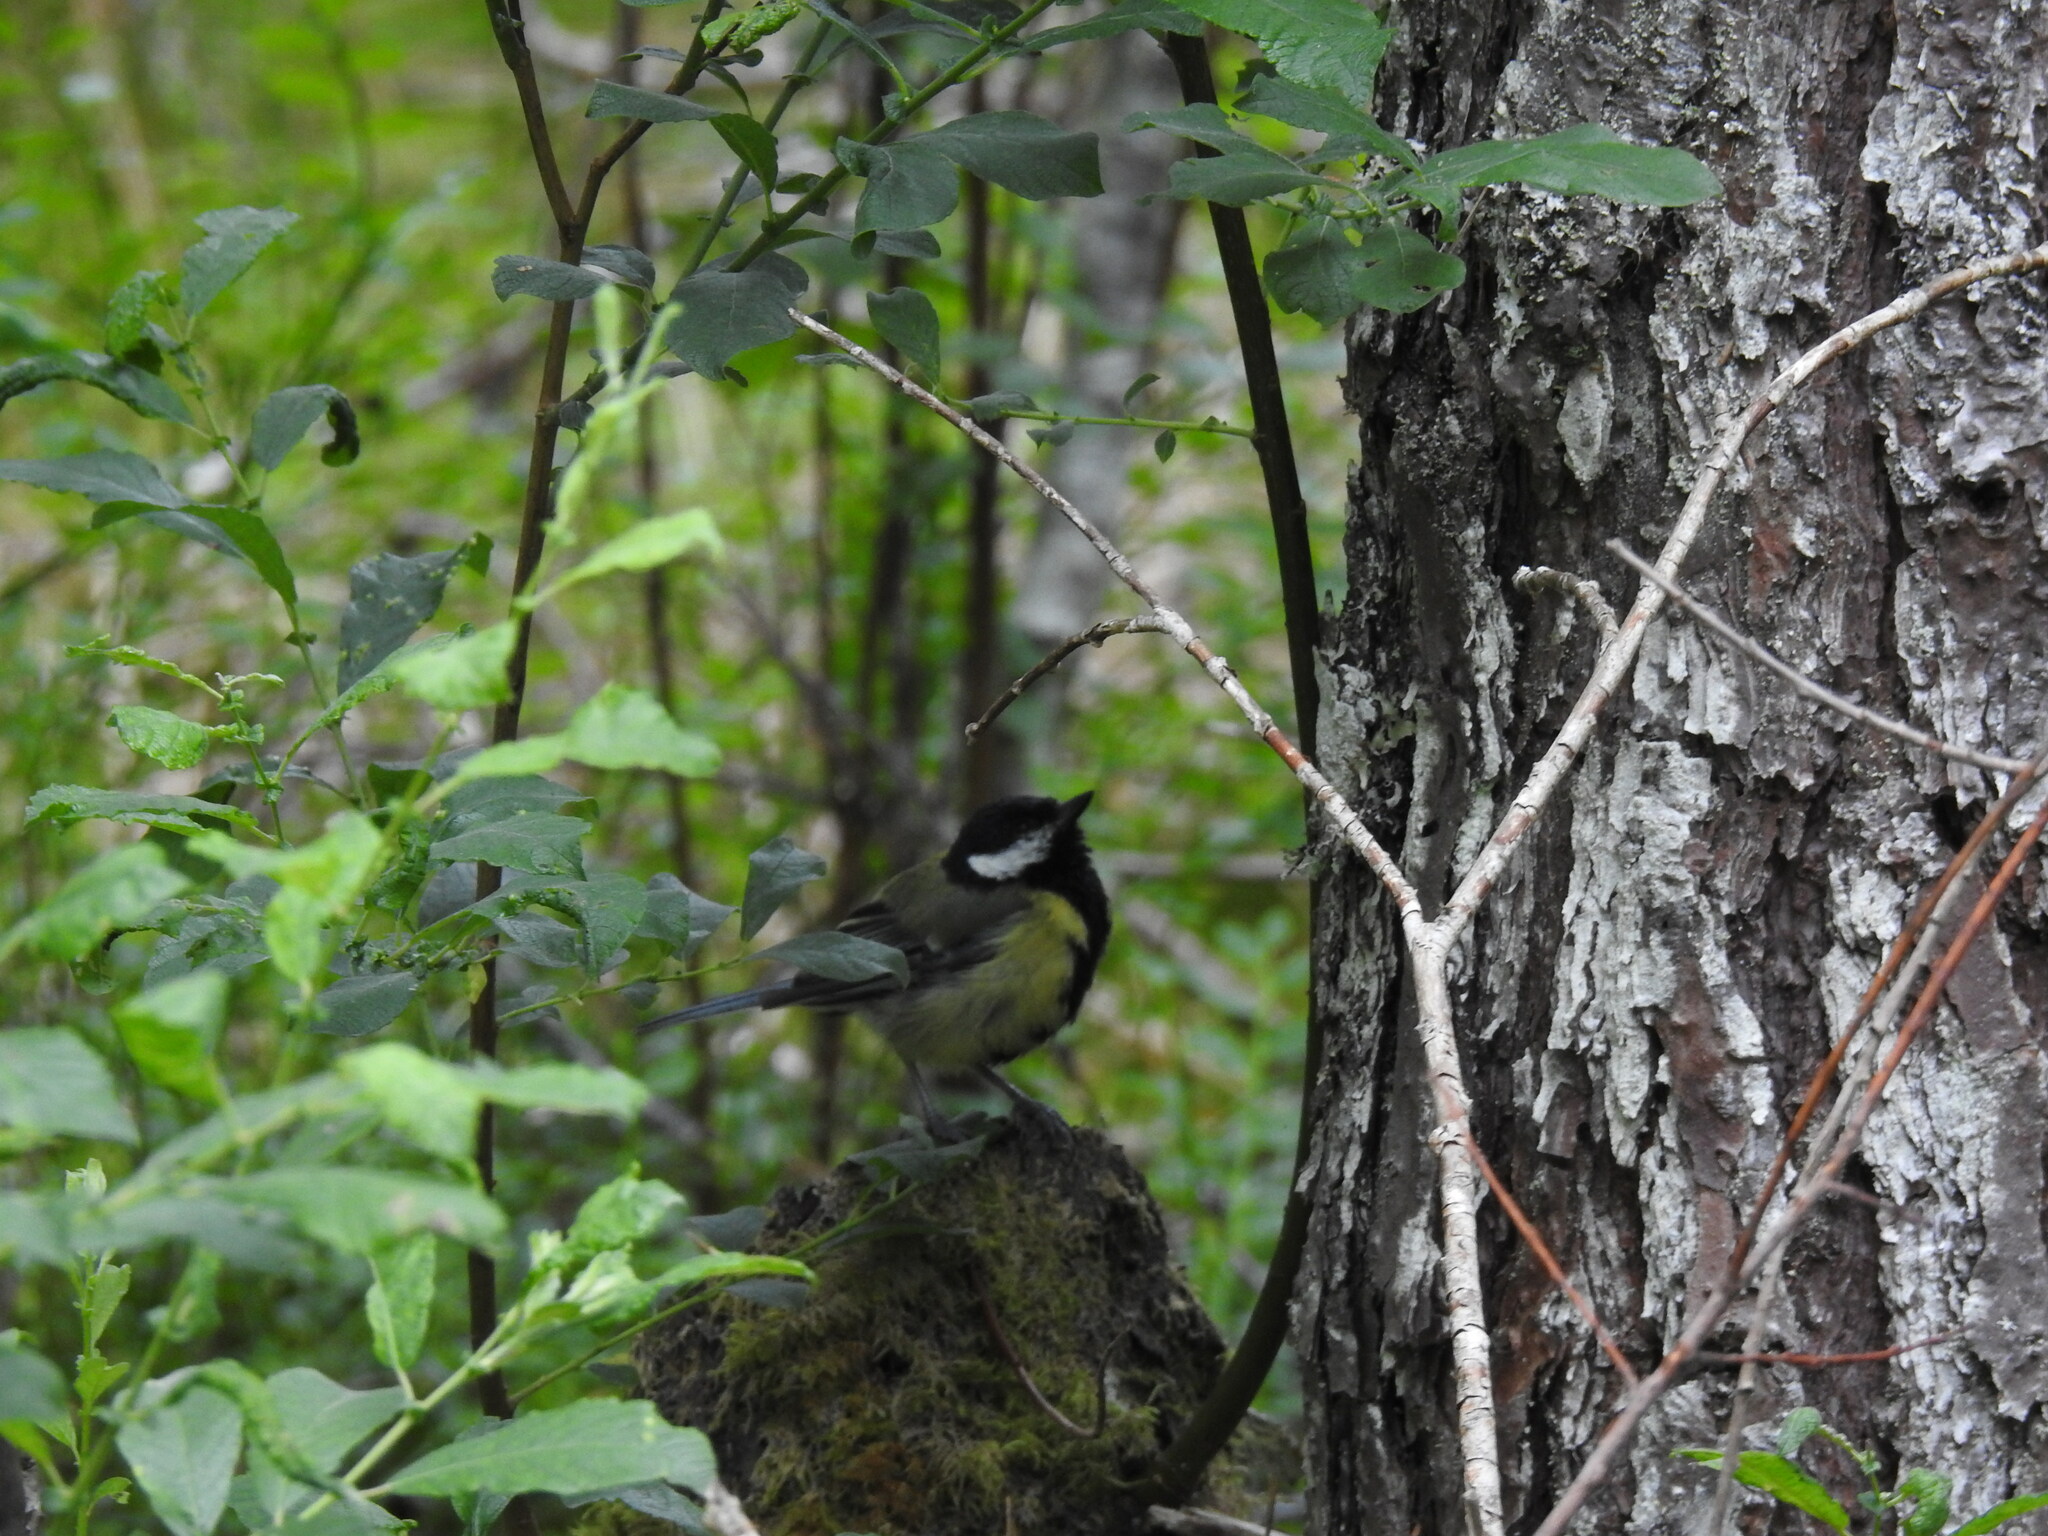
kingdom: Animalia
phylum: Chordata
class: Aves
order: Passeriformes
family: Paridae
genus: Parus
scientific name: Parus major
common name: Great tit
